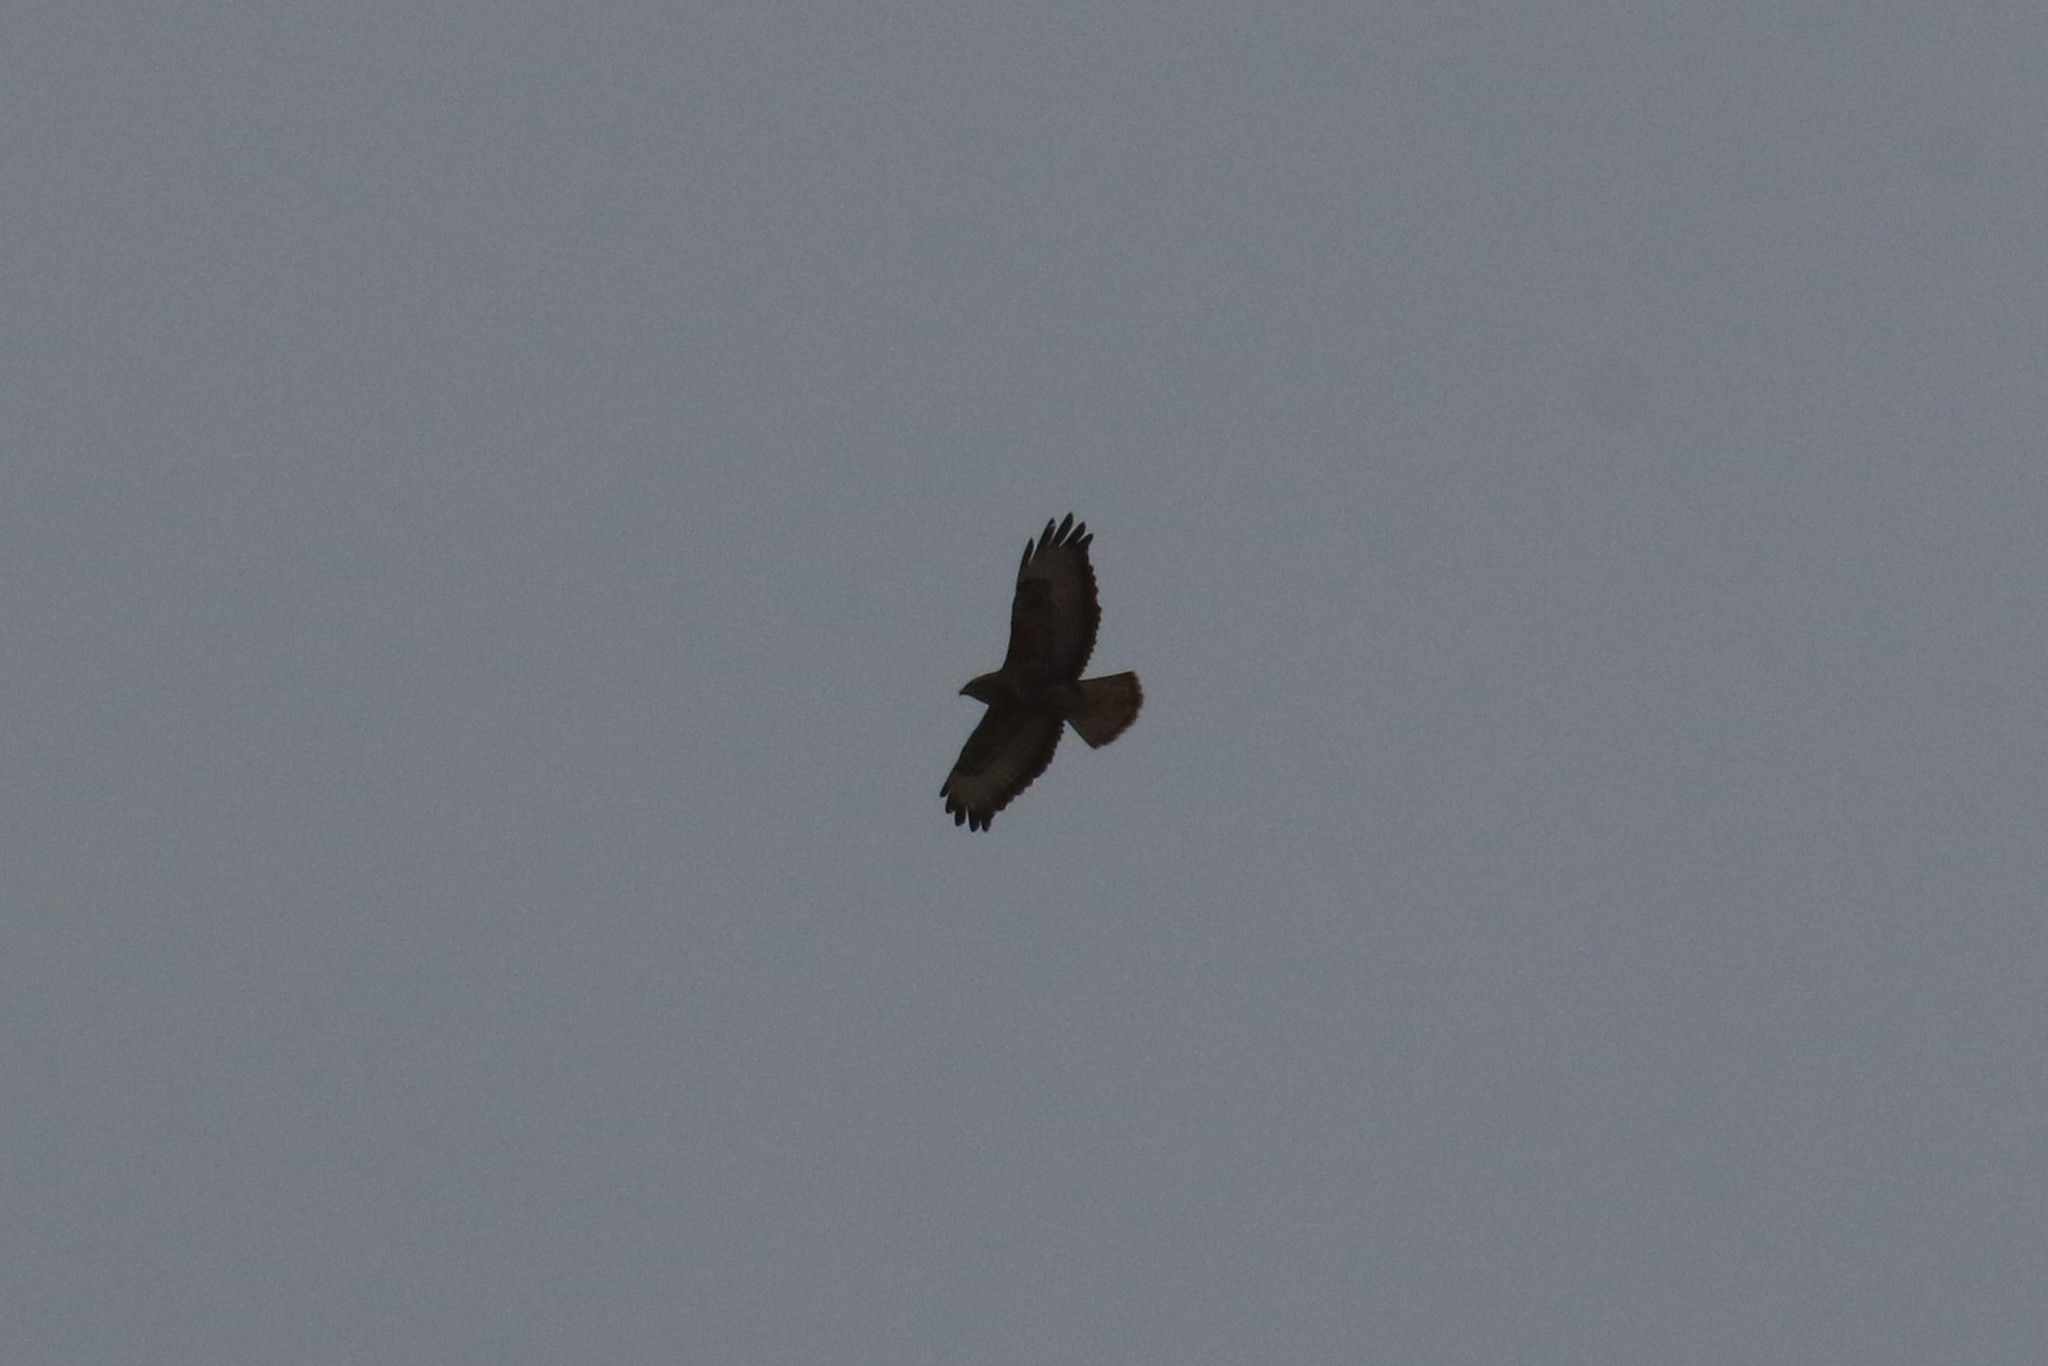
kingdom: Animalia
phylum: Chordata
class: Aves
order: Accipitriformes
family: Accipitridae
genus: Buteo
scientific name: Buteo buteo
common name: Common buzzard
